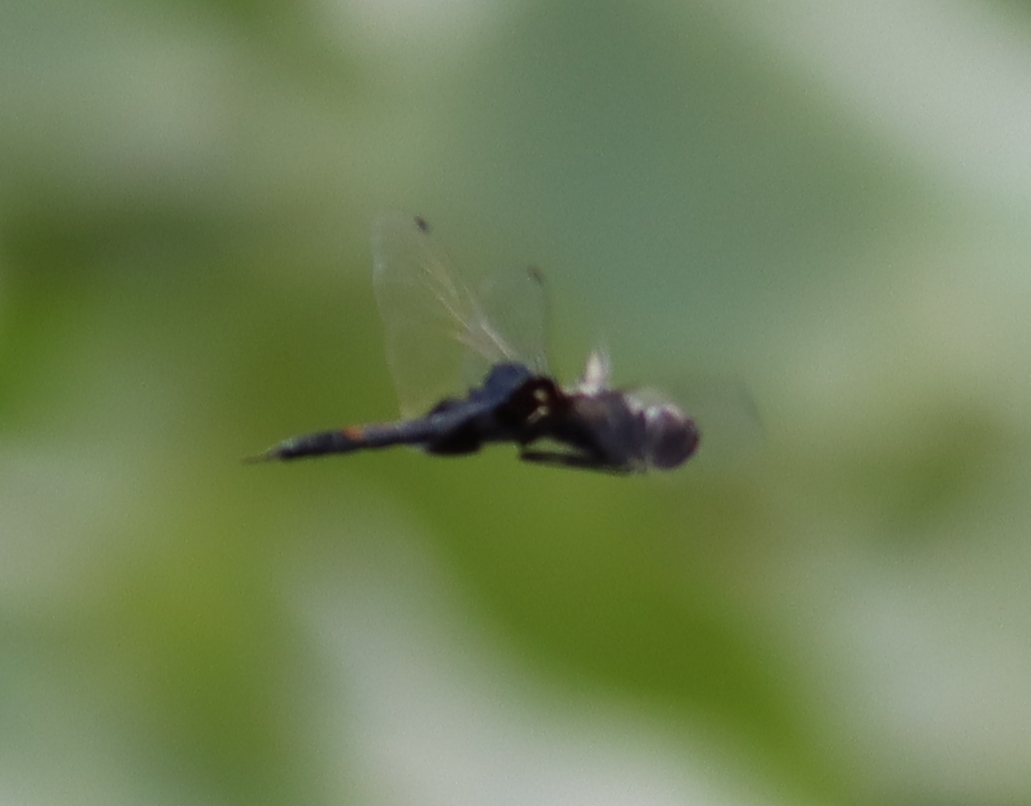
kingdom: Animalia
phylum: Arthropoda
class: Insecta
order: Odonata
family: Libellulidae
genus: Tramea
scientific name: Tramea lacerata
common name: Black saddlebags
